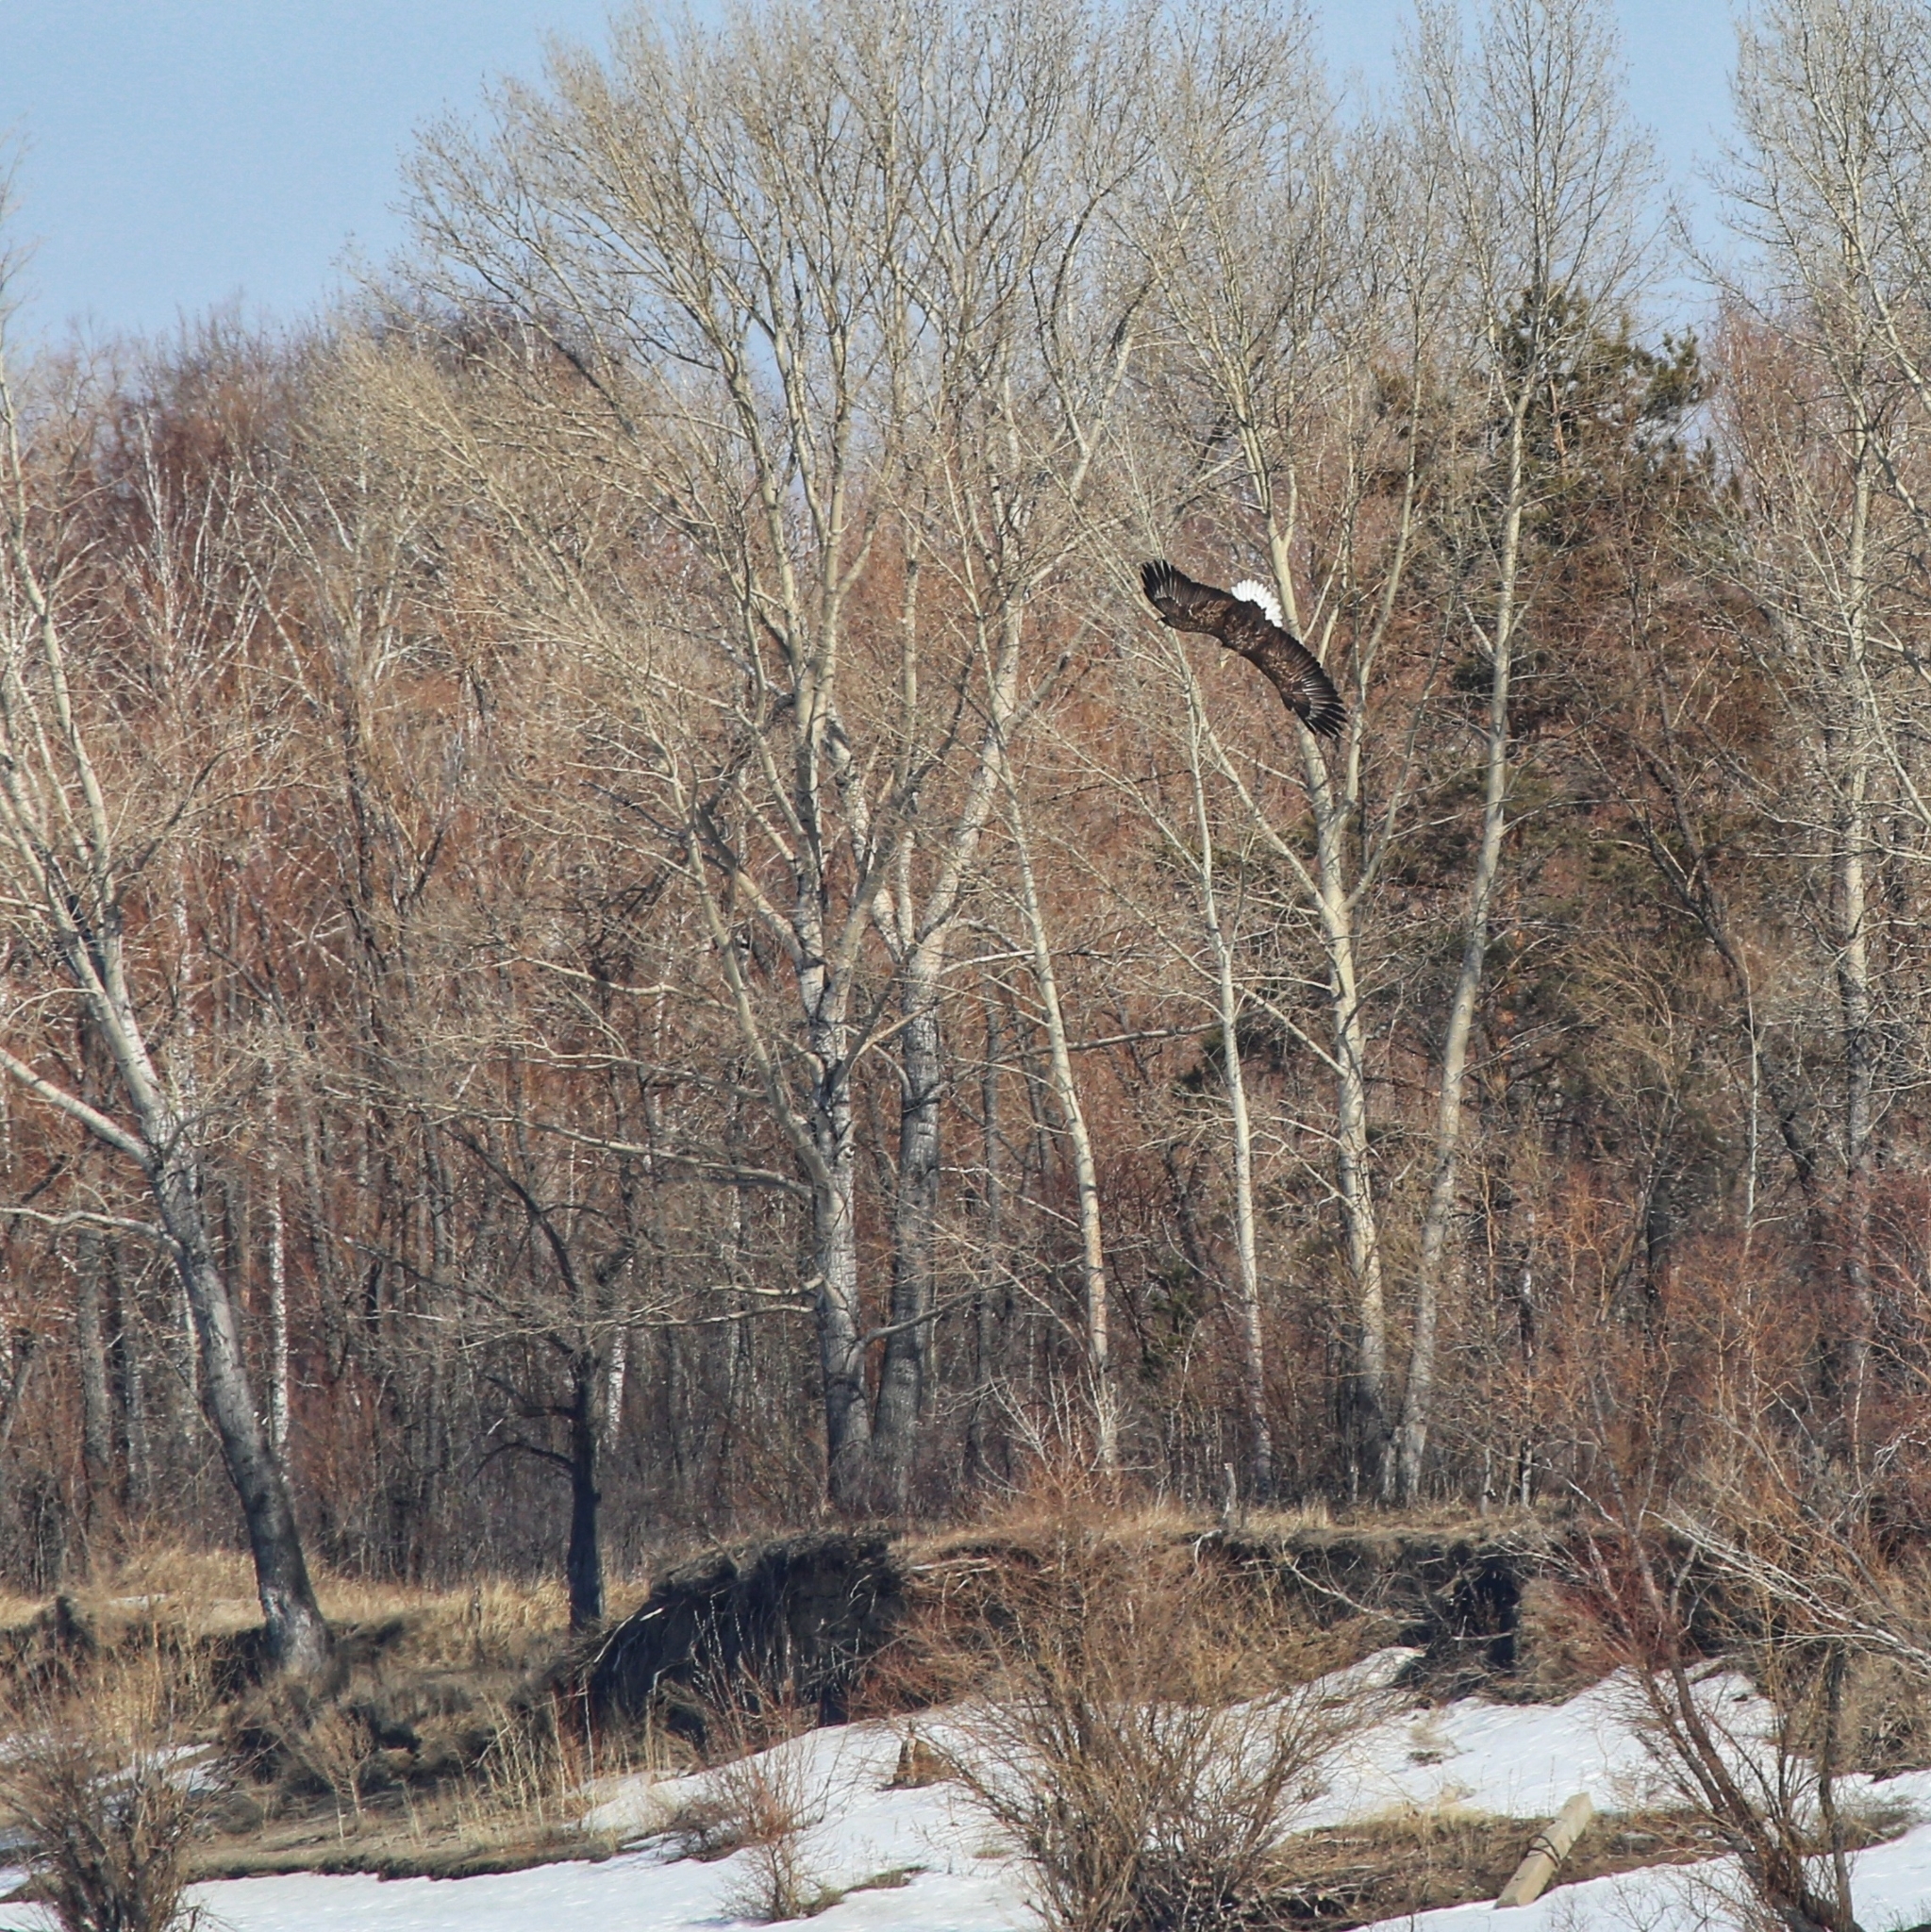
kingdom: Animalia
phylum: Chordata
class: Aves
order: Accipitriformes
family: Accipitridae
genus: Haliaeetus
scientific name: Haliaeetus albicilla
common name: White-tailed eagle
